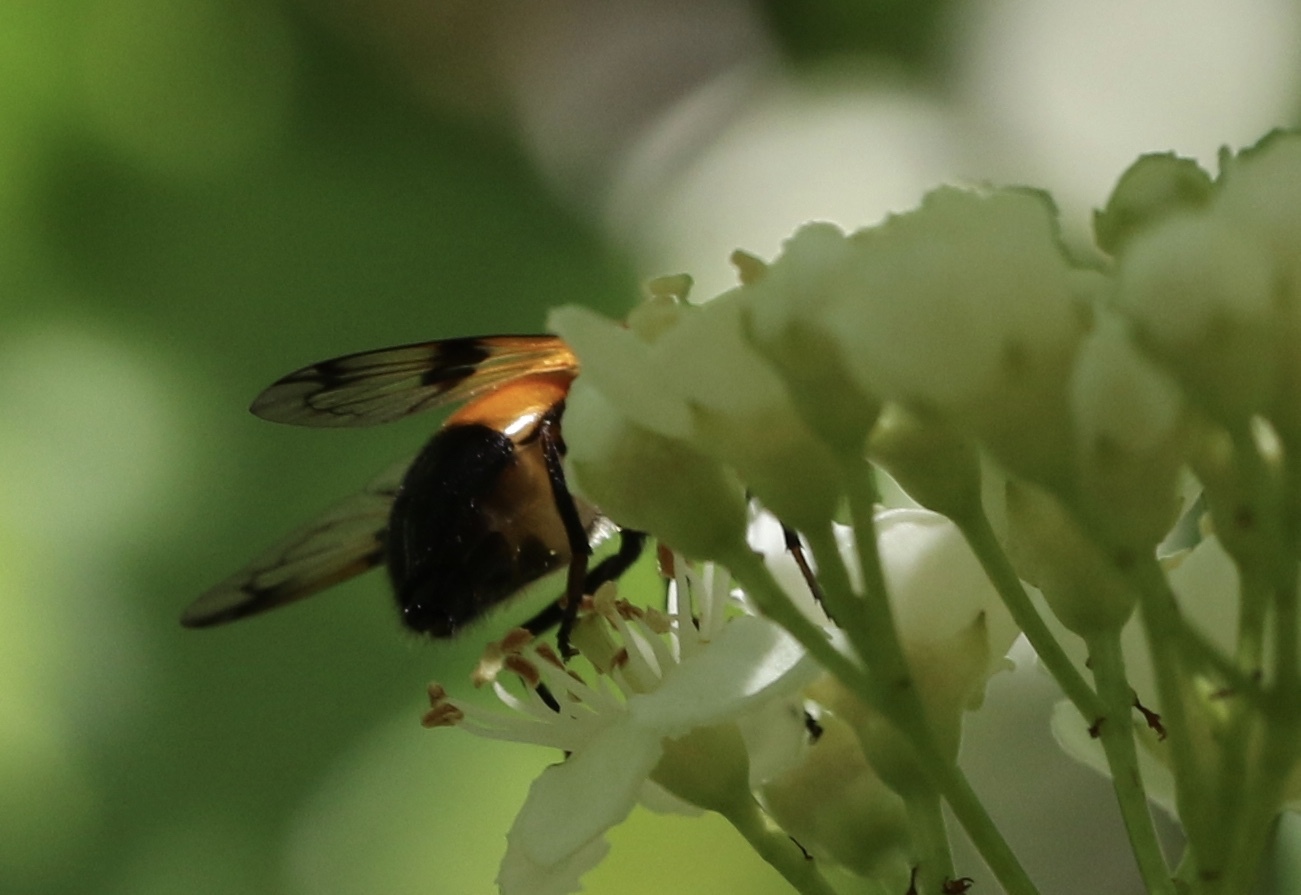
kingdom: Animalia
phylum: Arthropoda
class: Insecta
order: Diptera
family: Syrphidae
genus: Volucella
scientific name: Volucella inflata
